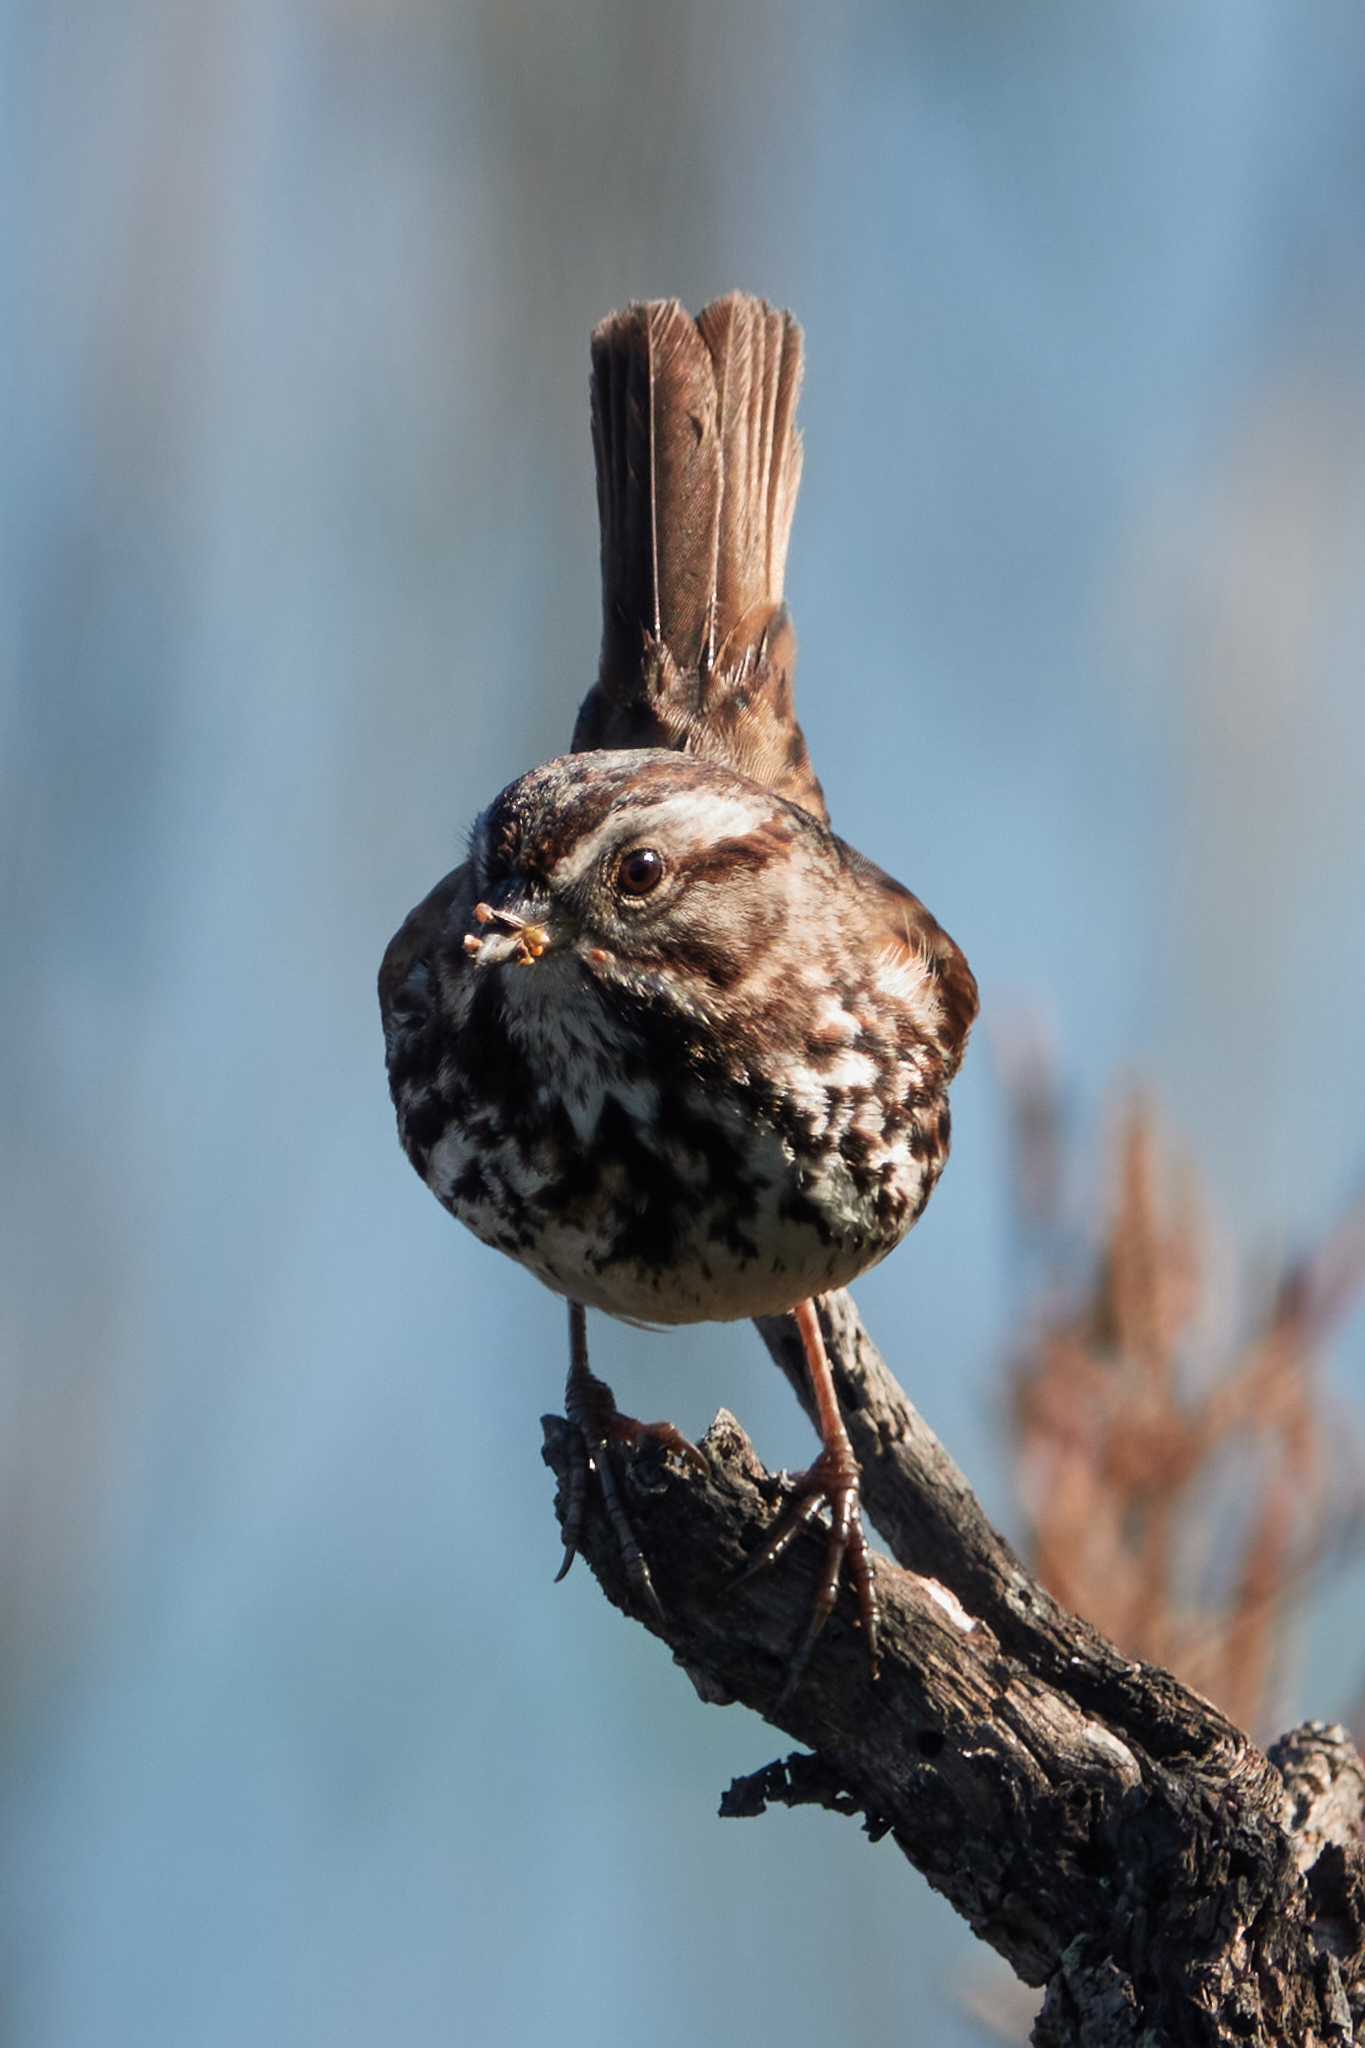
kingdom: Animalia
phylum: Chordata
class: Aves
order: Passeriformes
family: Passerellidae
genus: Melospiza
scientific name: Melospiza melodia
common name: Song sparrow
